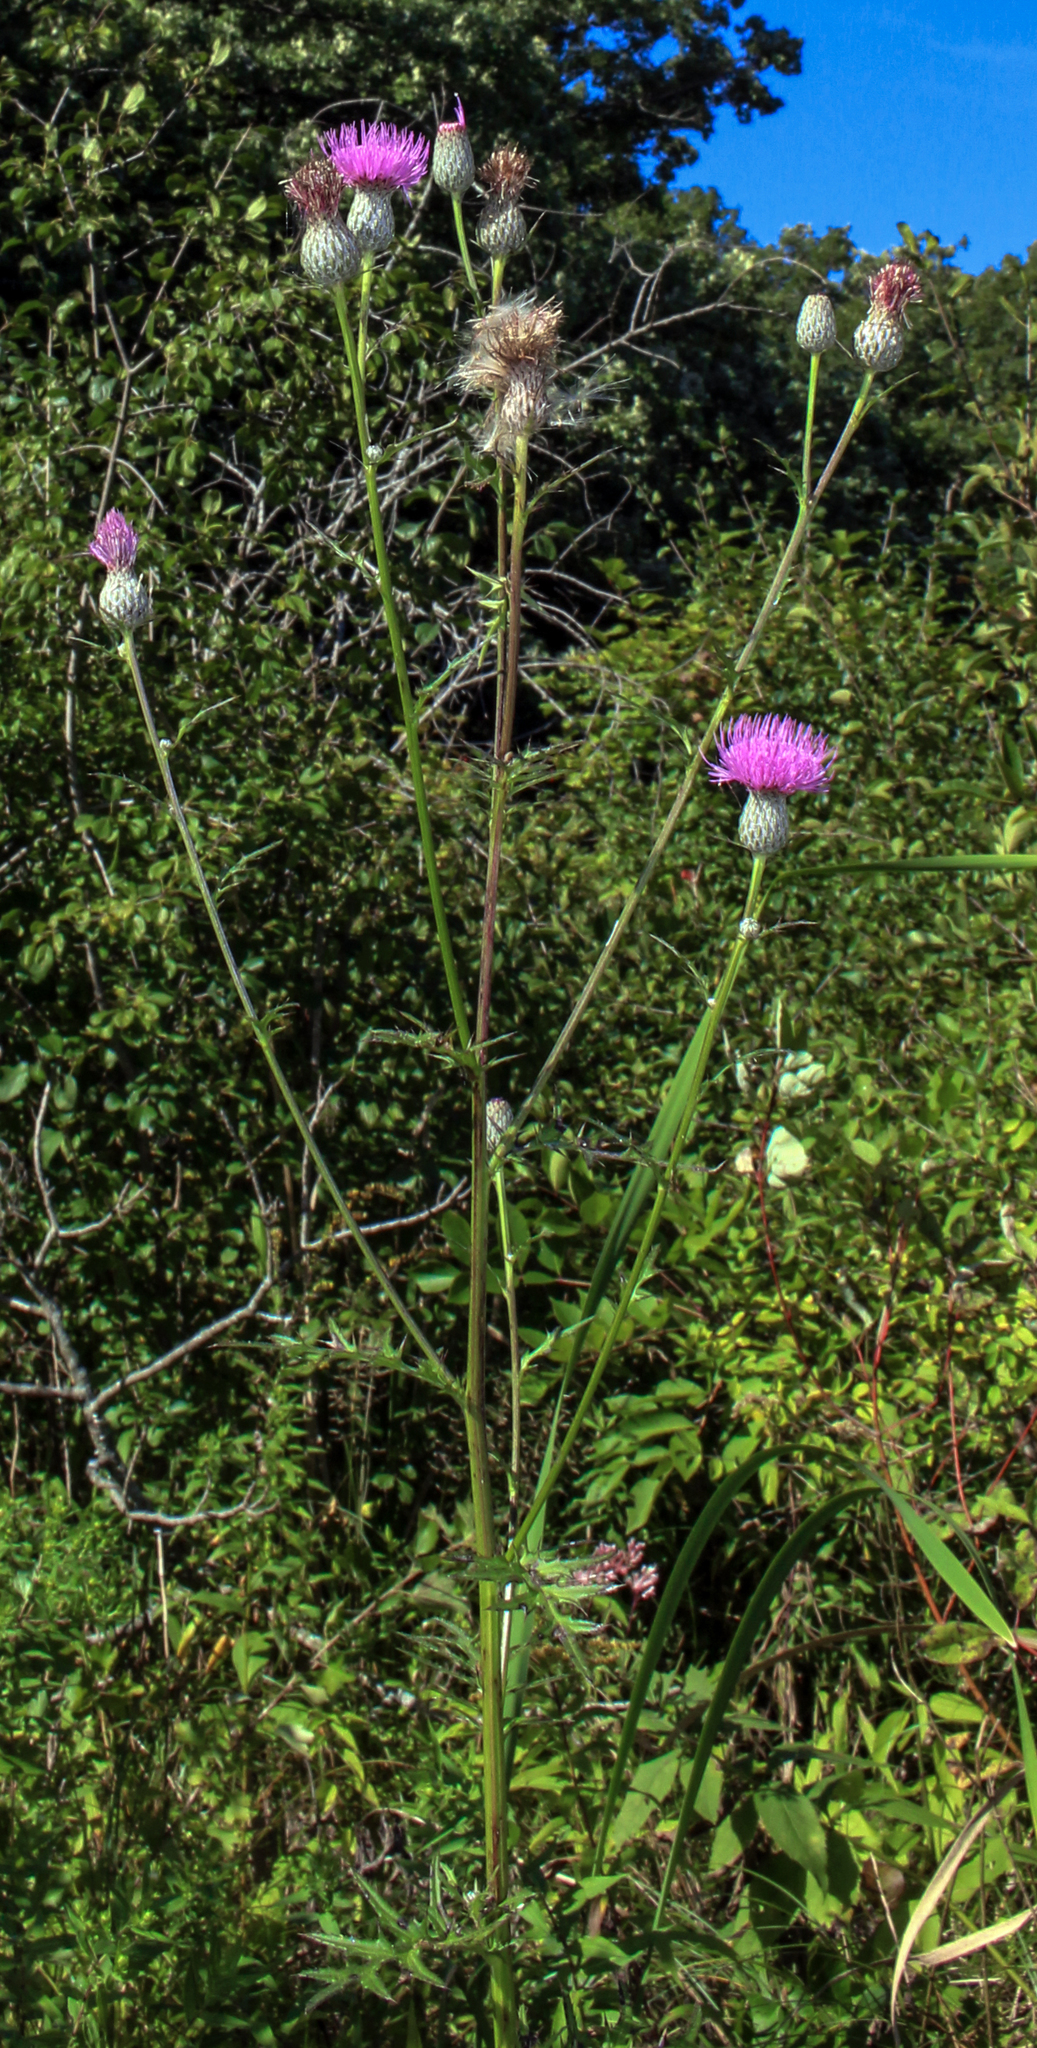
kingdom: Plantae
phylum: Tracheophyta
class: Magnoliopsida
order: Asterales
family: Asteraceae
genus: Cirsium
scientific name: Cirsium muticum
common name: Dunce-nettle
